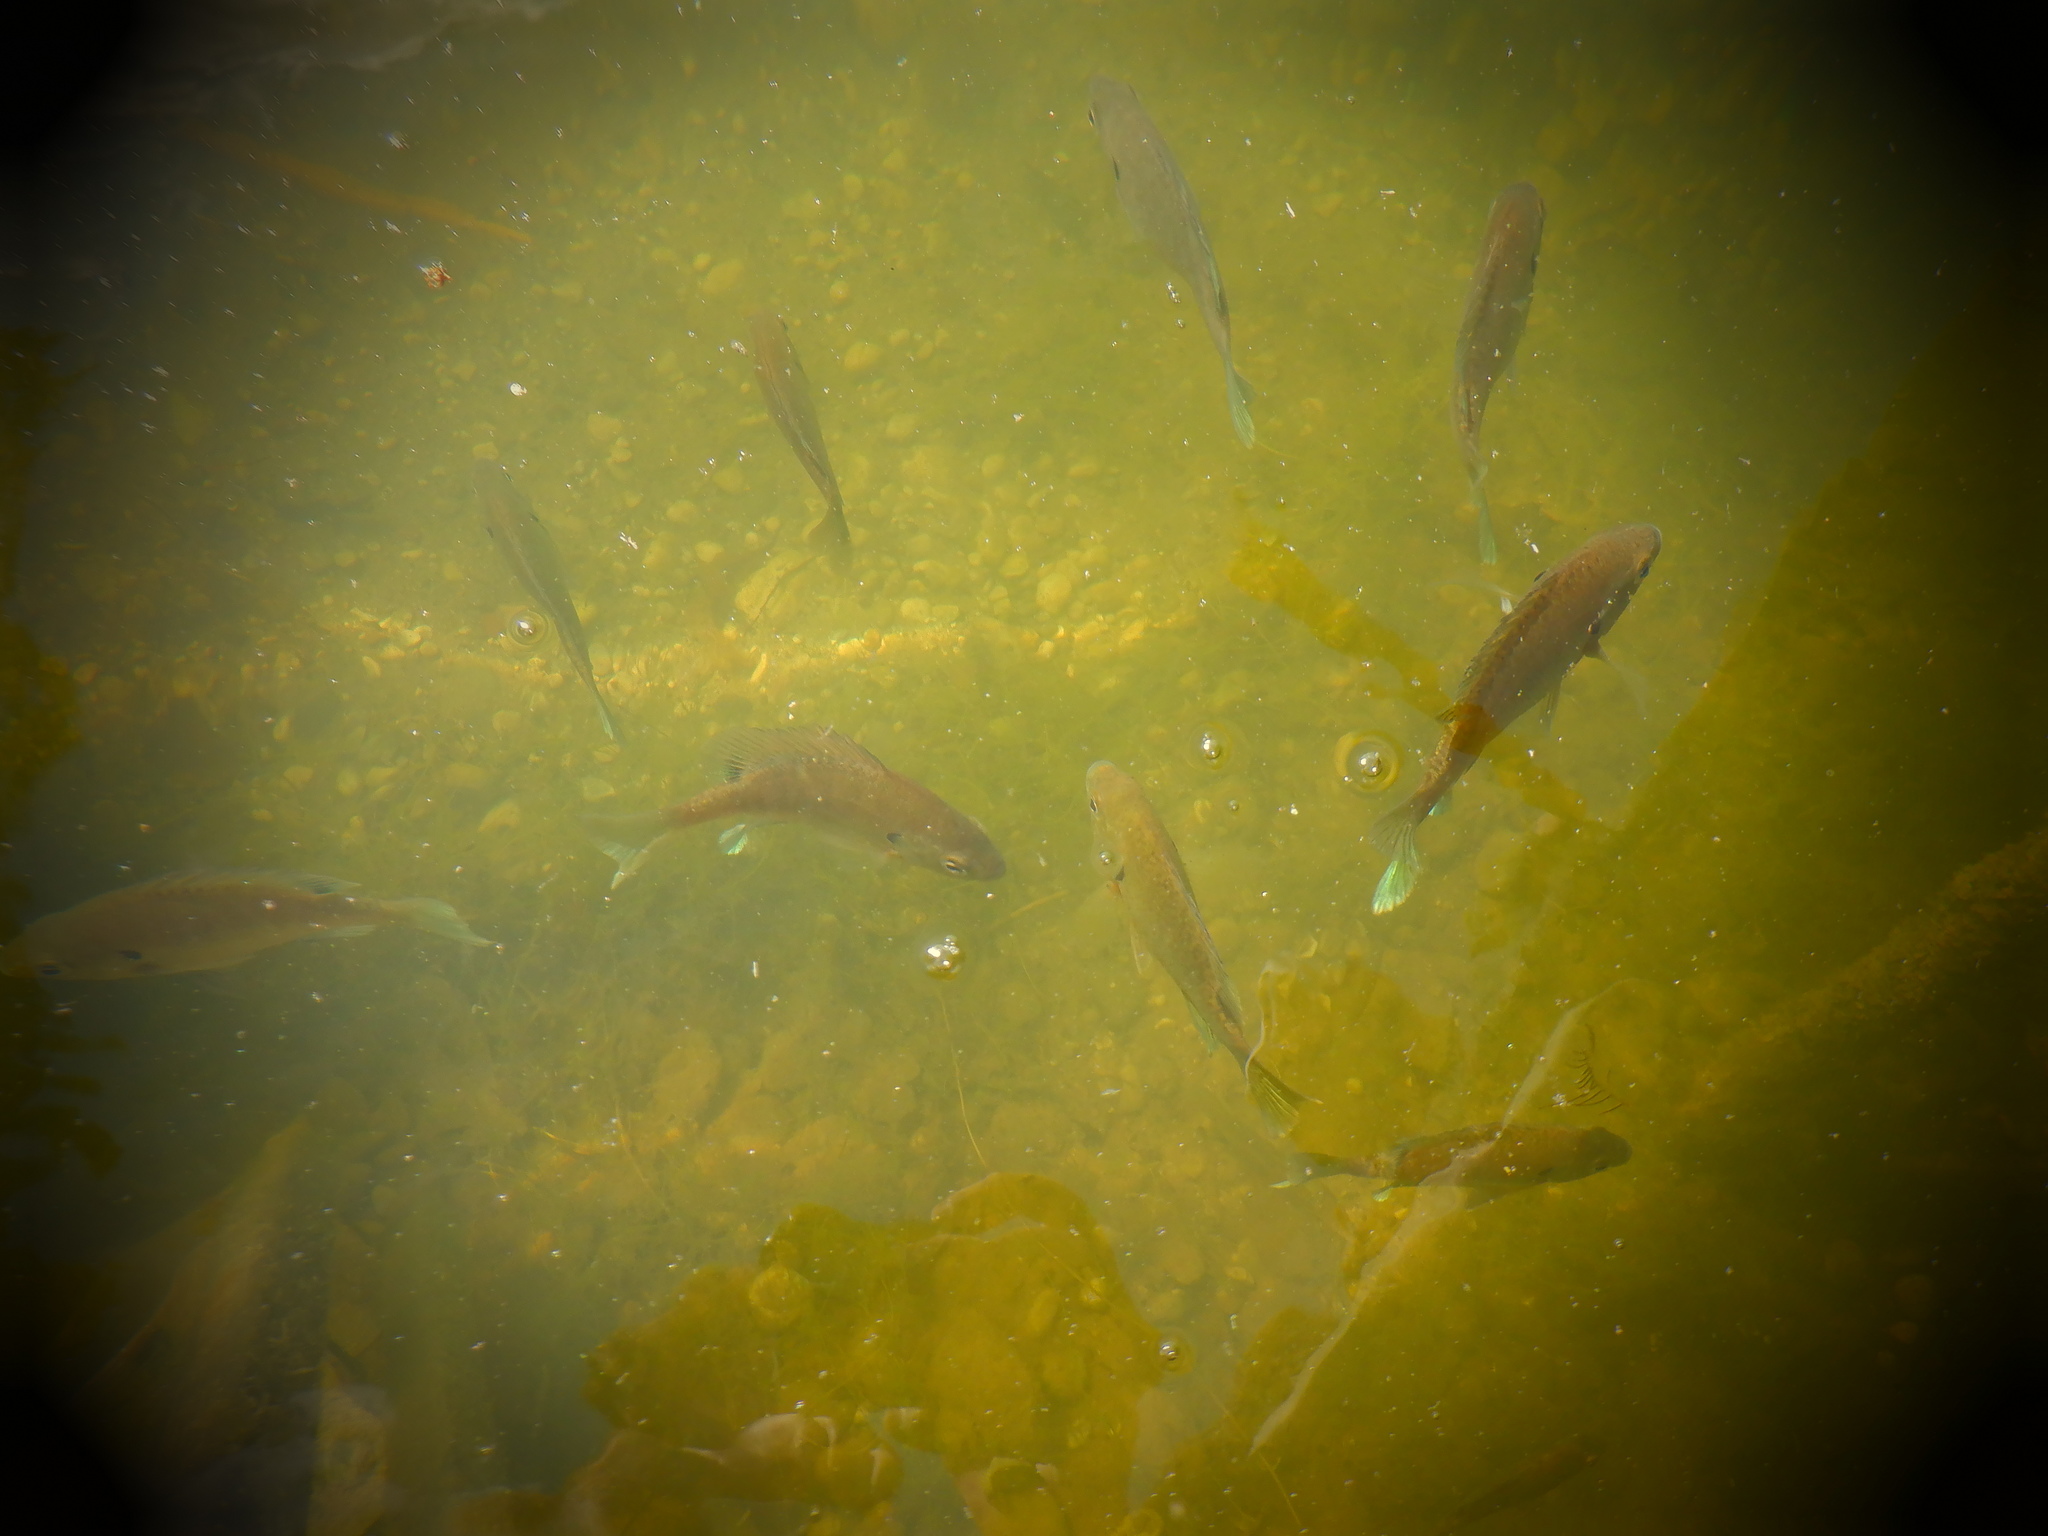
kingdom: Animalia
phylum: Chordata
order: Perciformes
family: Centrarchidae
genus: Lepomis
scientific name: Lepomis macrochirus
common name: Bluegill
